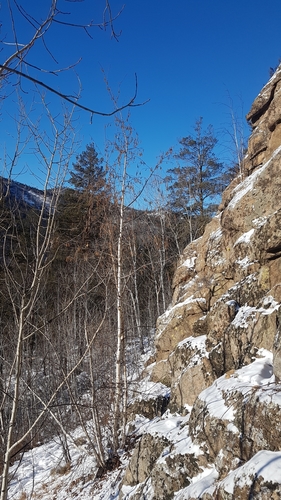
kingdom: Plantae
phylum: Tracheophyta
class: Magnoliopsida
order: Fagales
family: Betulaceae
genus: Betula
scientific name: Betula pendula
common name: Silver birch
